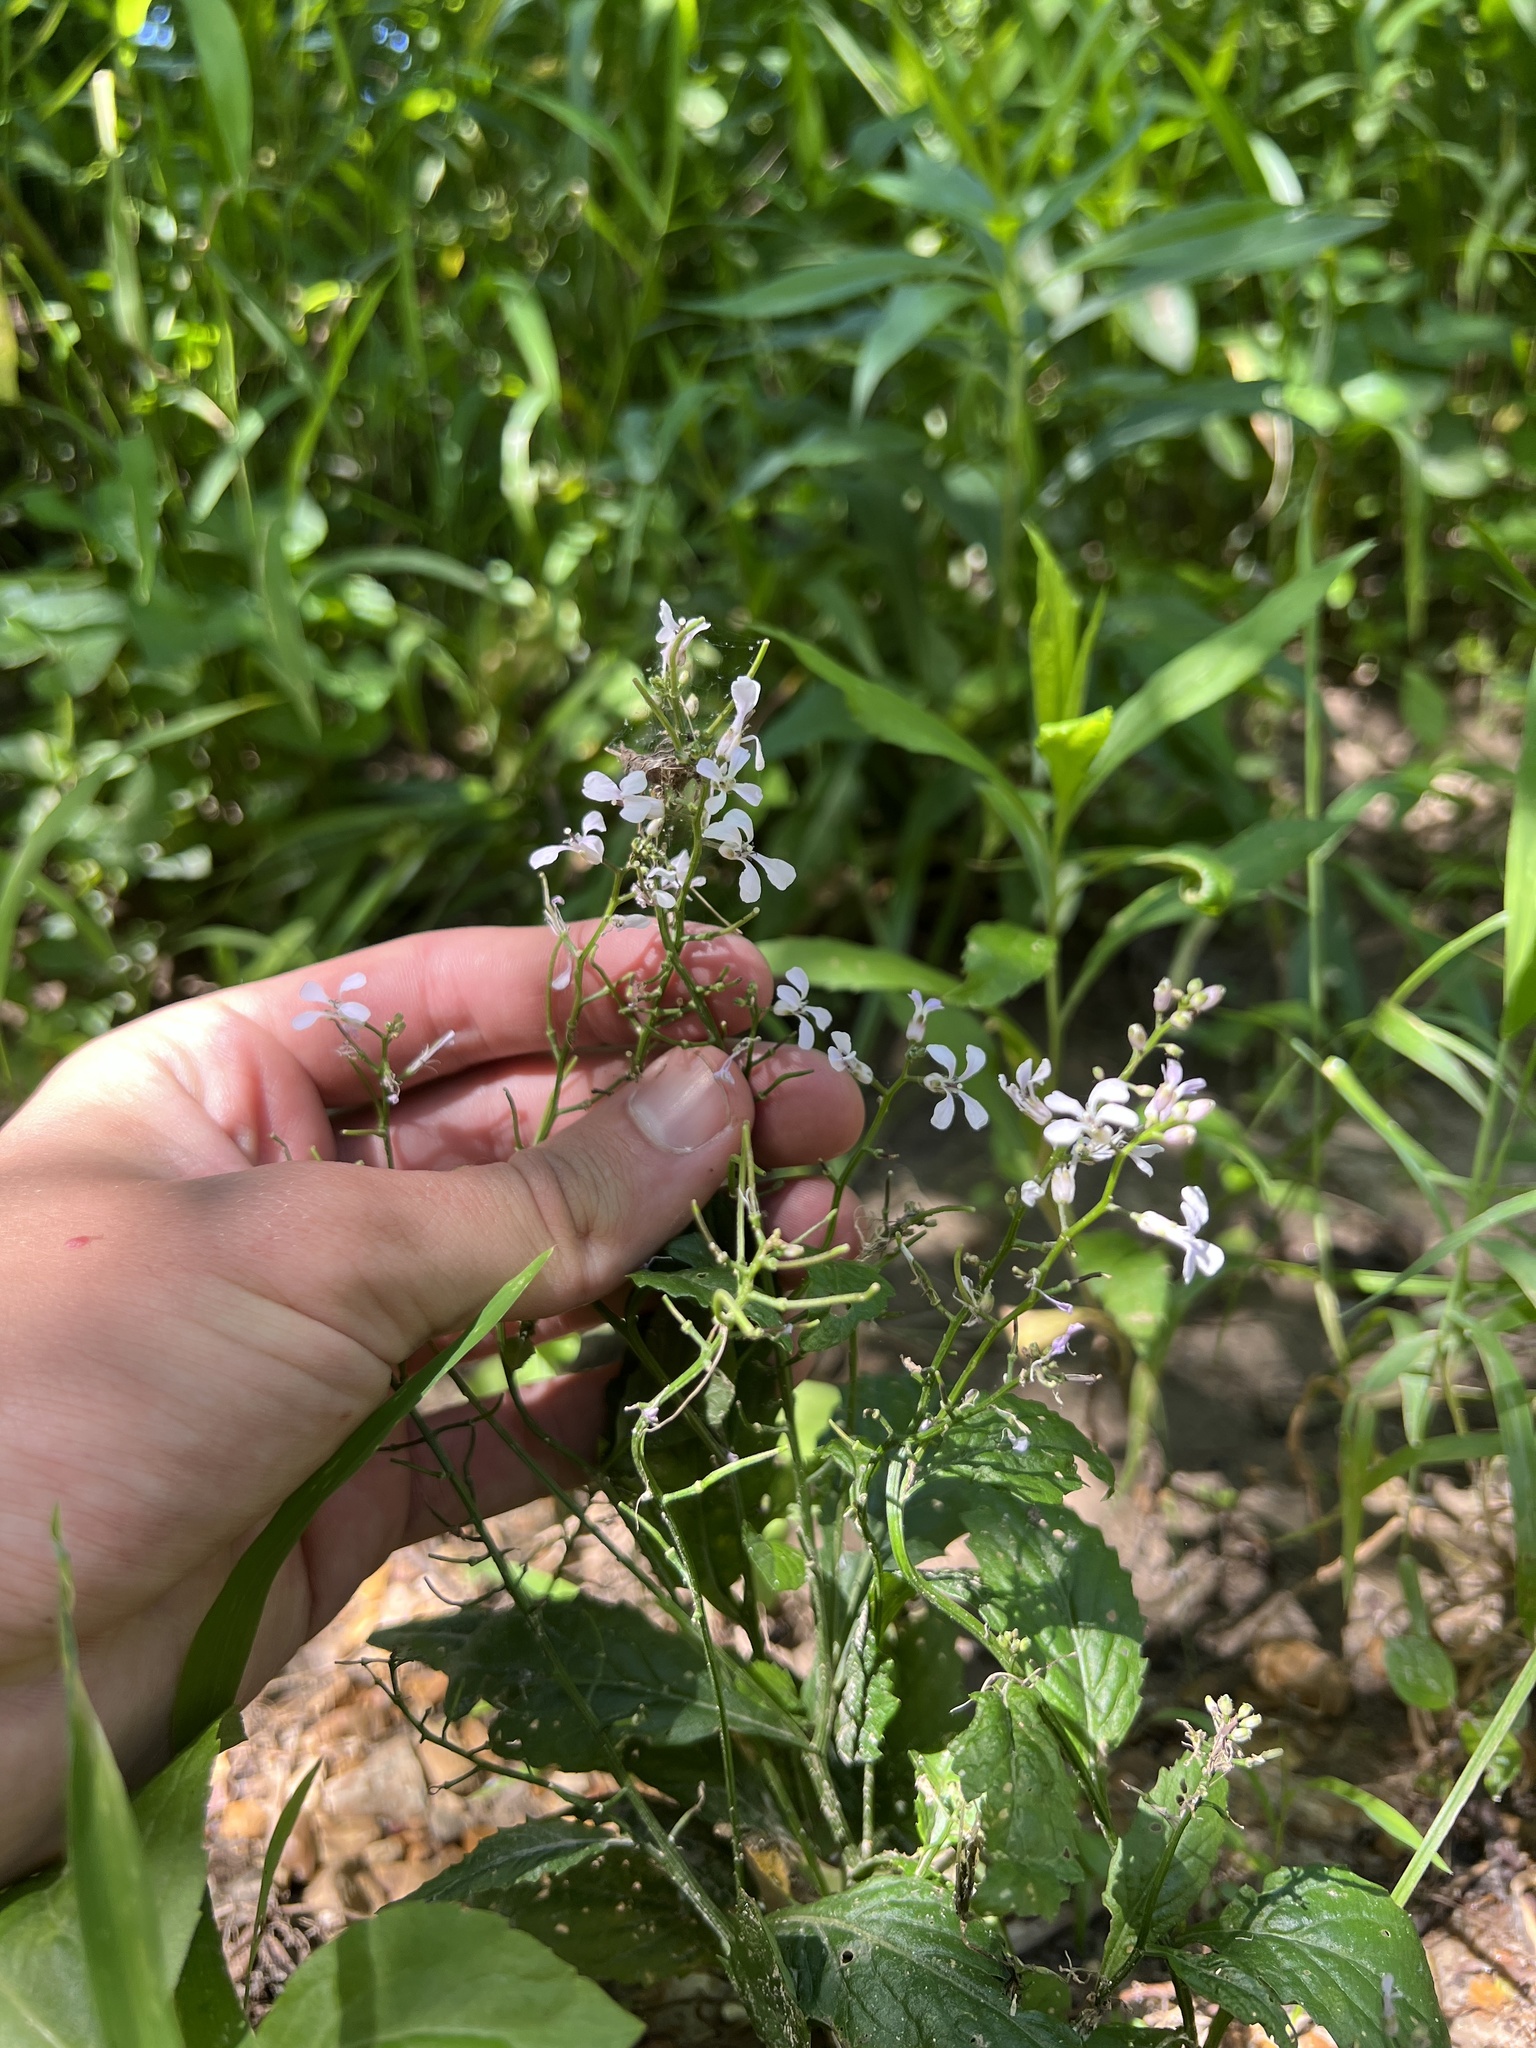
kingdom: Plantae
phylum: Tracheophyta
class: Magnoliopsida
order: Brassicales
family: Brassicaceae
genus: Iodanthus
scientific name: Iodanthus pinnatifidus
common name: Violet rocket
